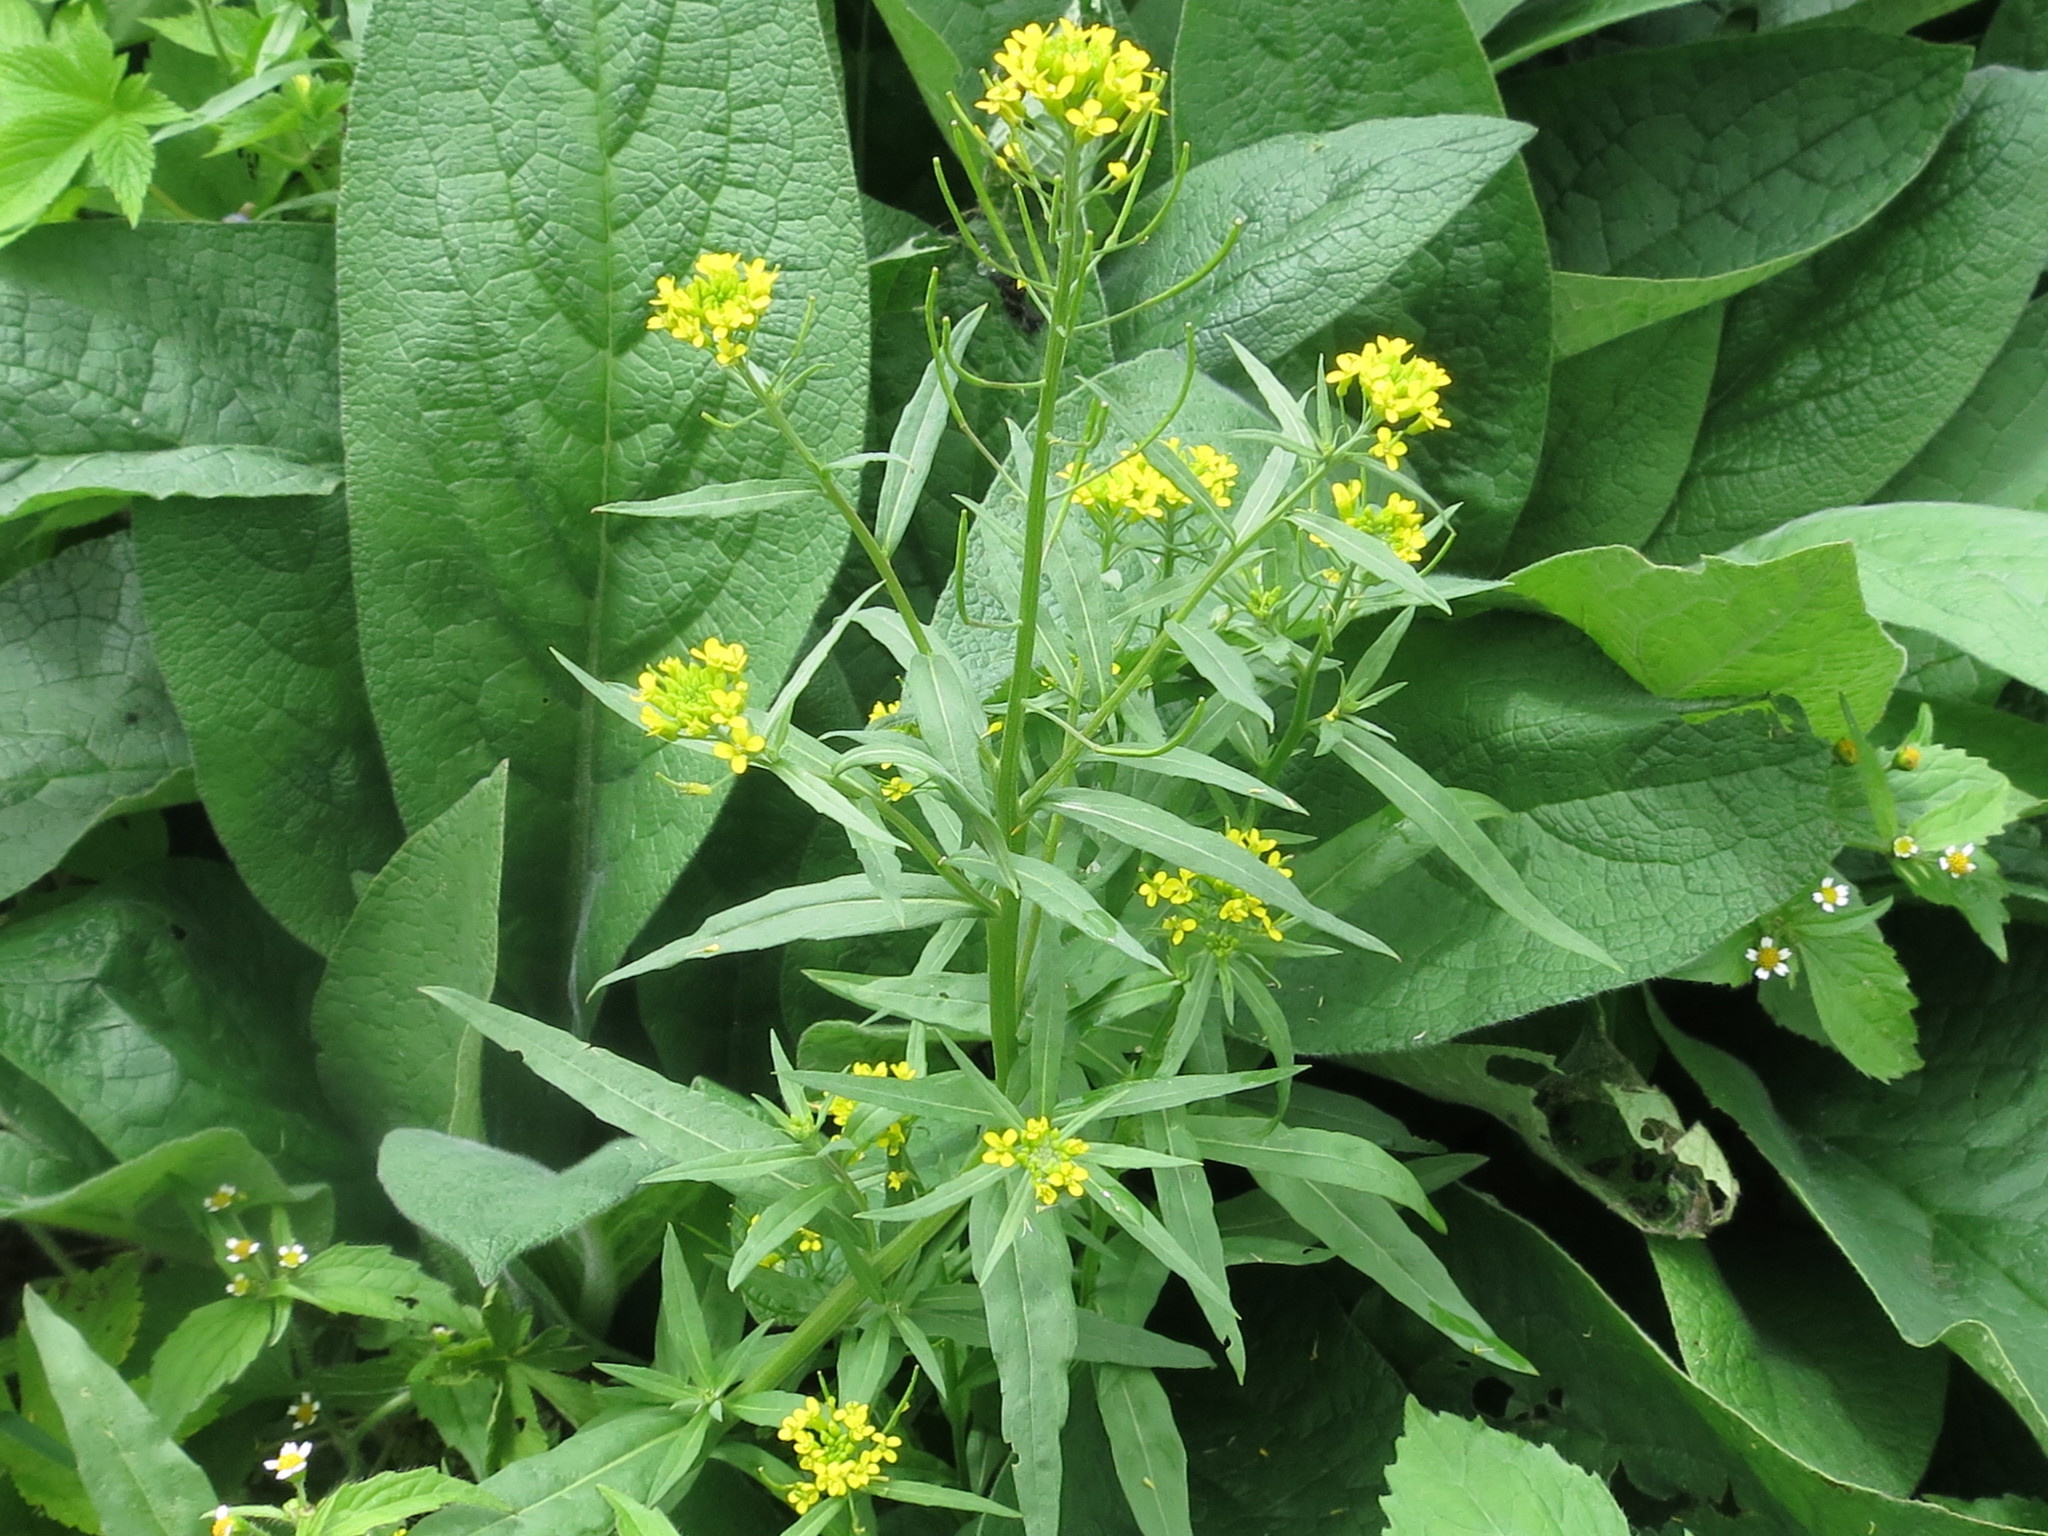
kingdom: Plantae
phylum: Tracheophyta
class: Magnoliopsida
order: Brassicales
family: Brassicaceae
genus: Erysimum
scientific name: Erysimum cheiranthoides
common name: Treacle mustard
